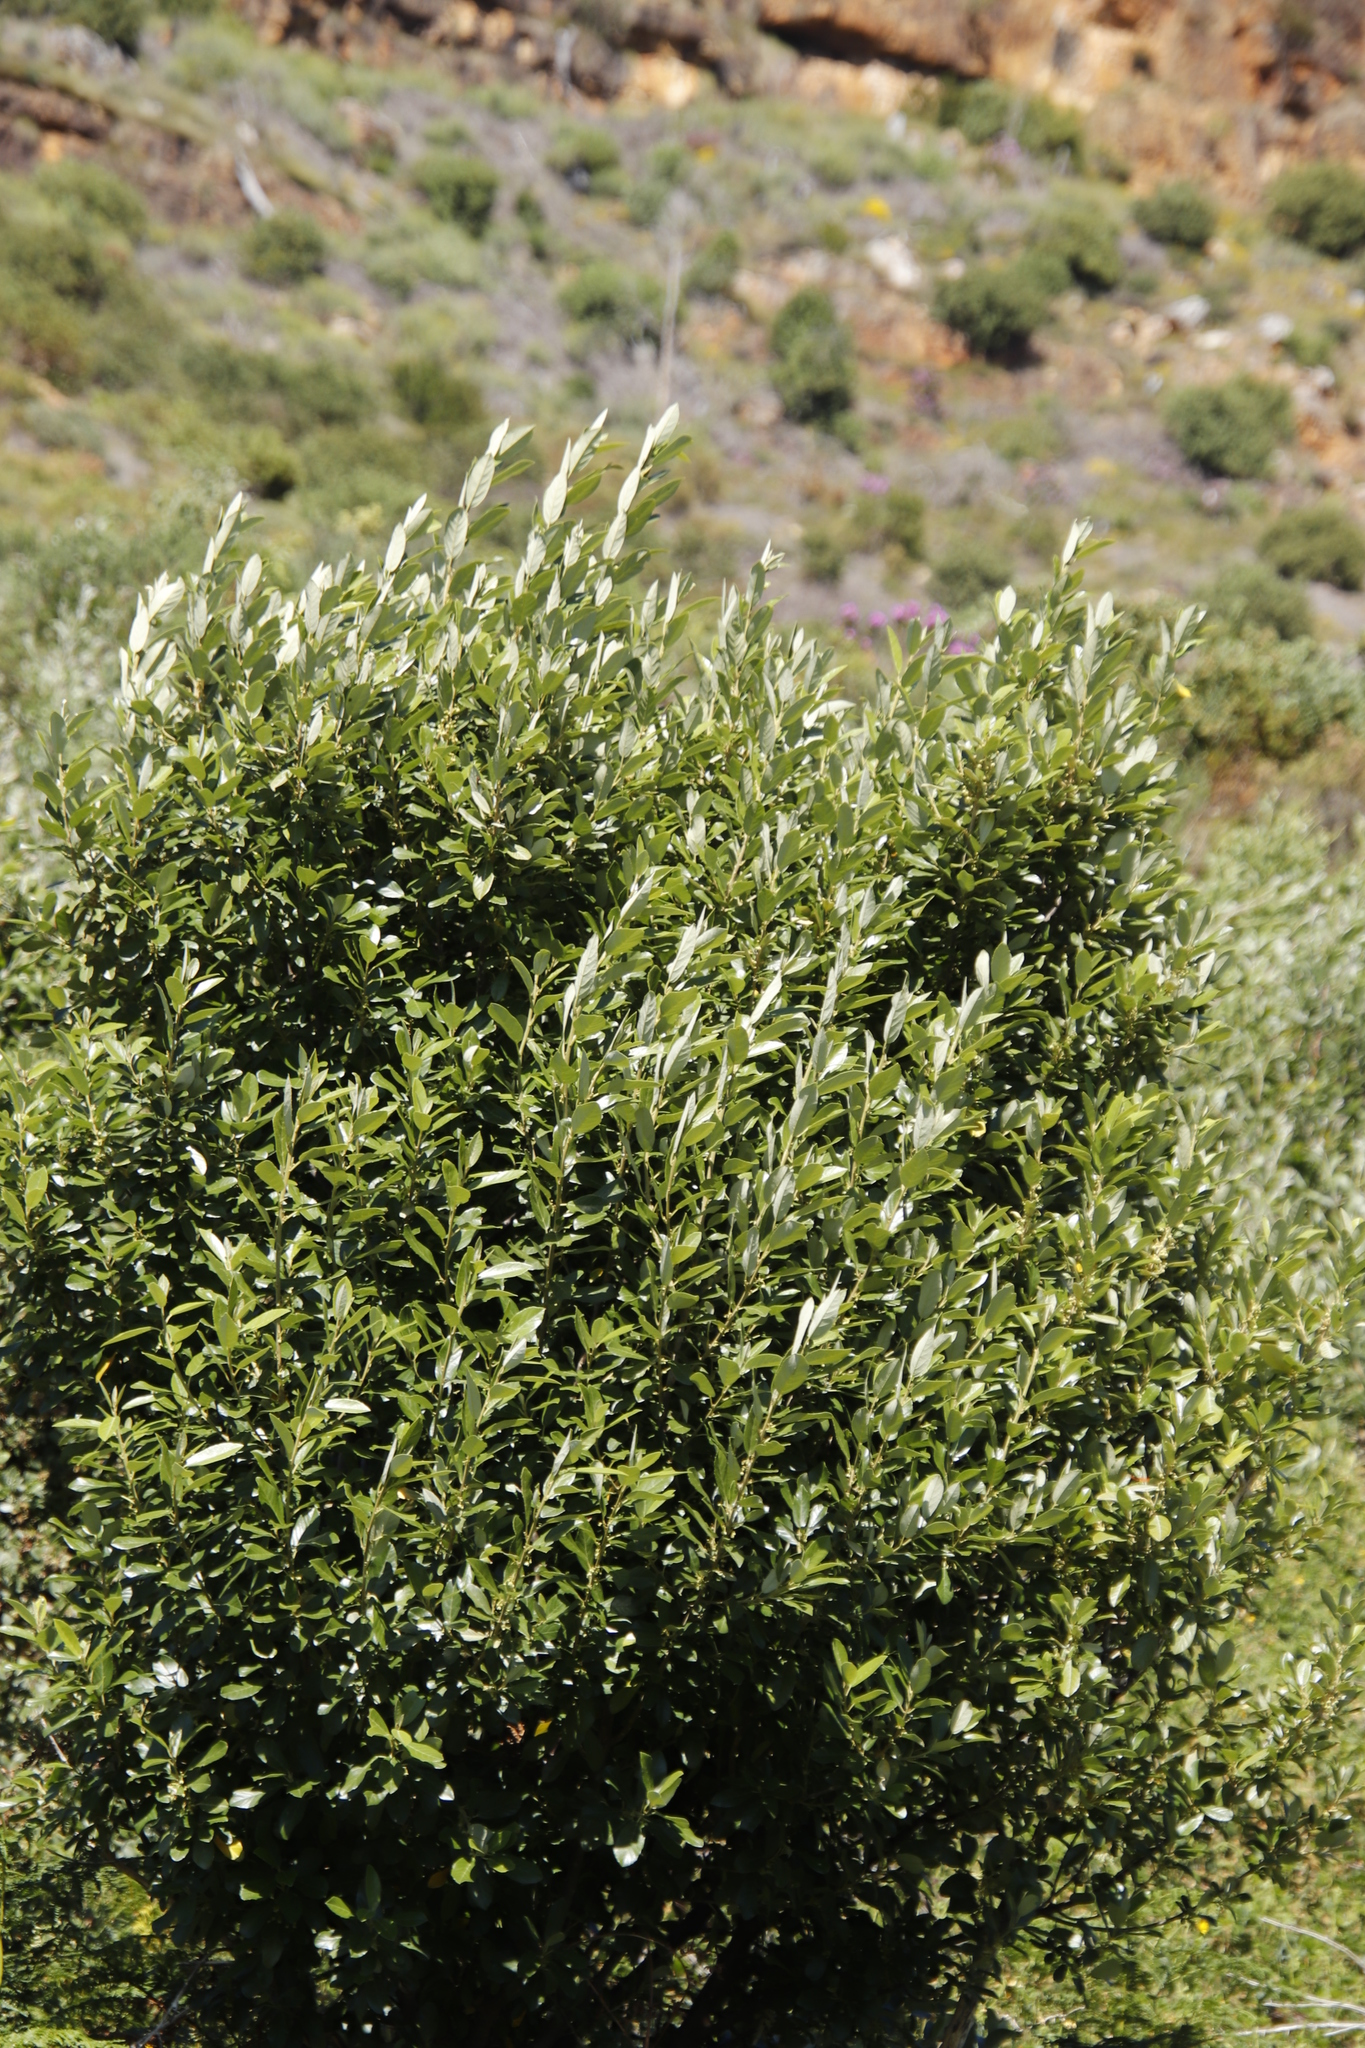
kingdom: Plantae
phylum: Tracheophyta
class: Magnoliopsida
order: Malpighiales
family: Achariaceae
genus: Kiggelaria
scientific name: Kiggelaria africana
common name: Wild peach
